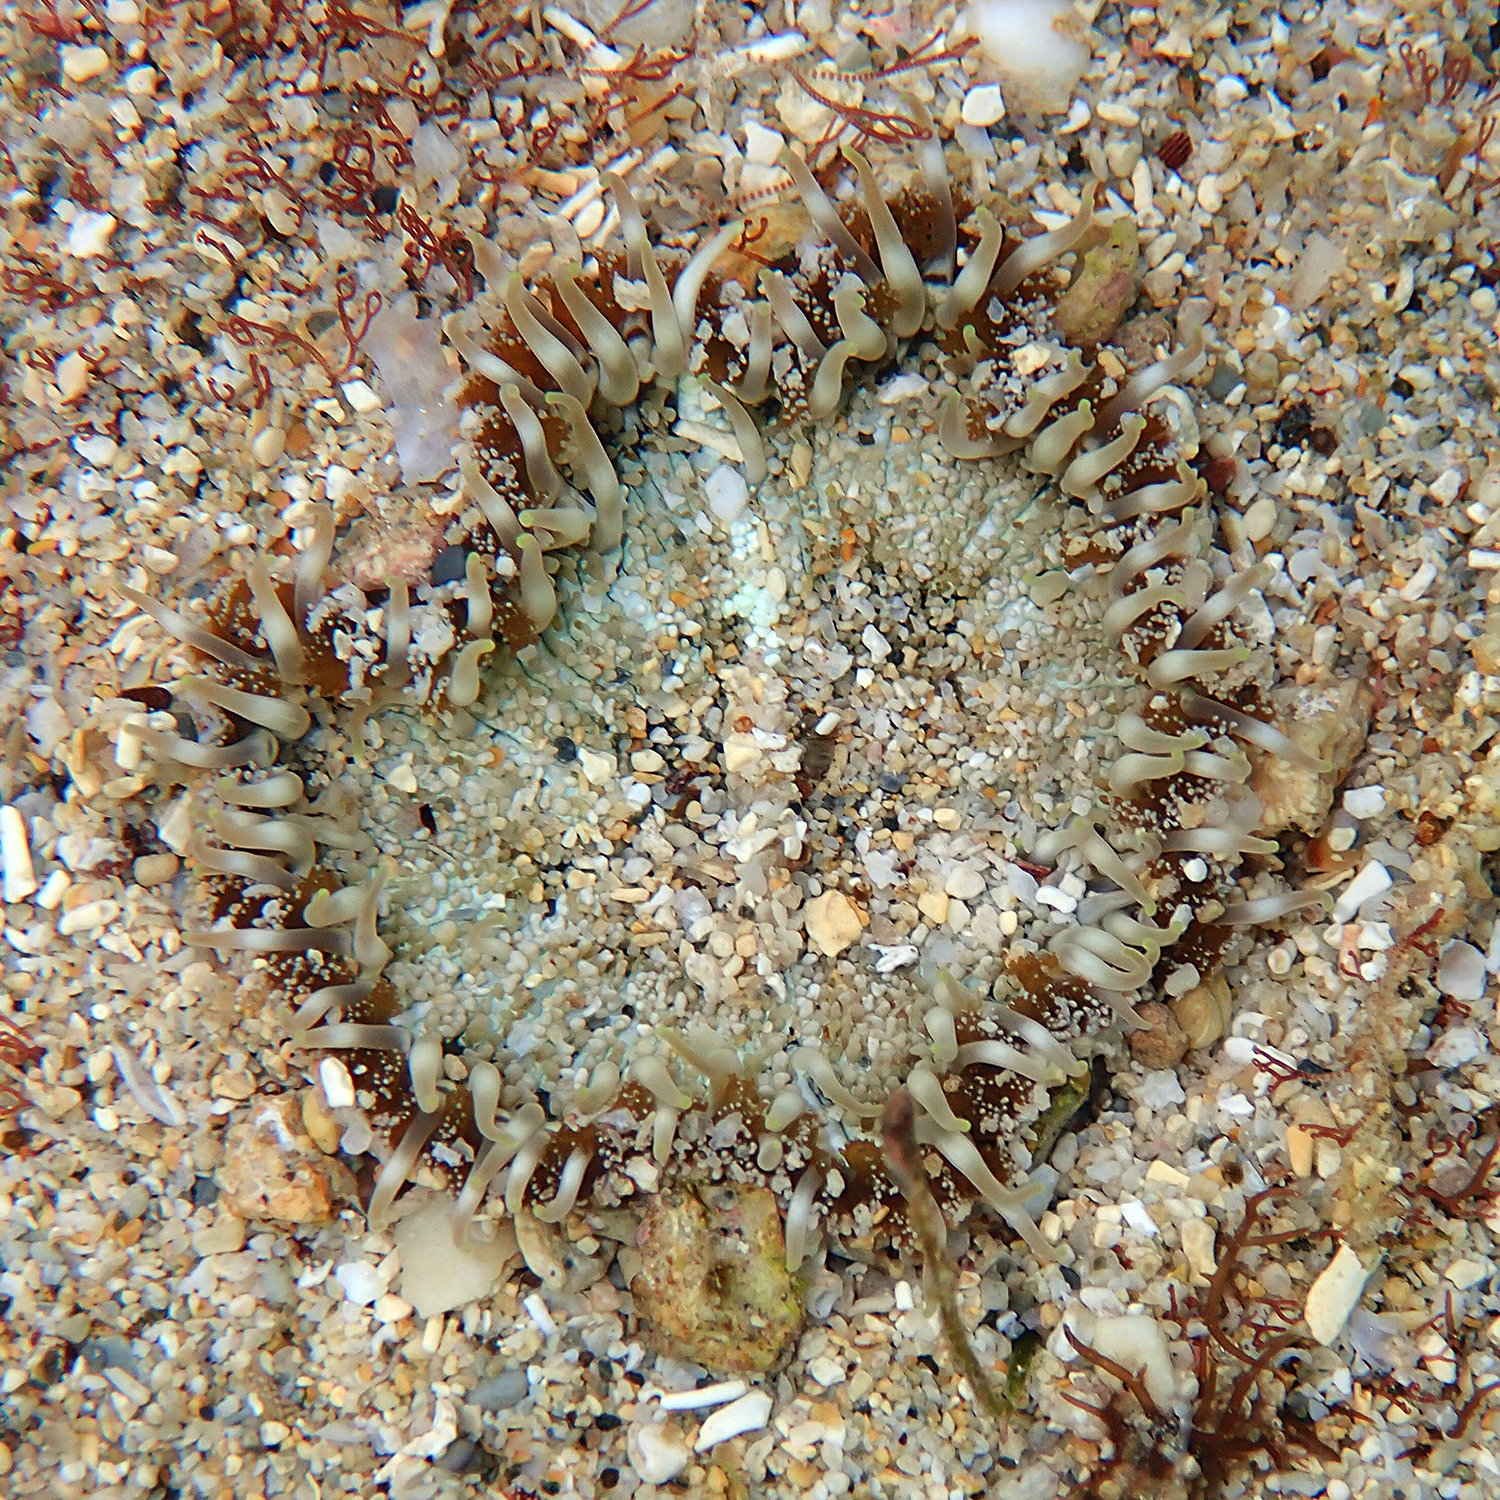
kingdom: Animalia
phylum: Cnidaria
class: Anthozoa
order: Actiniaria
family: Heteranthidae
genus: Heteranthus
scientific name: Heteranthus verruculatus
